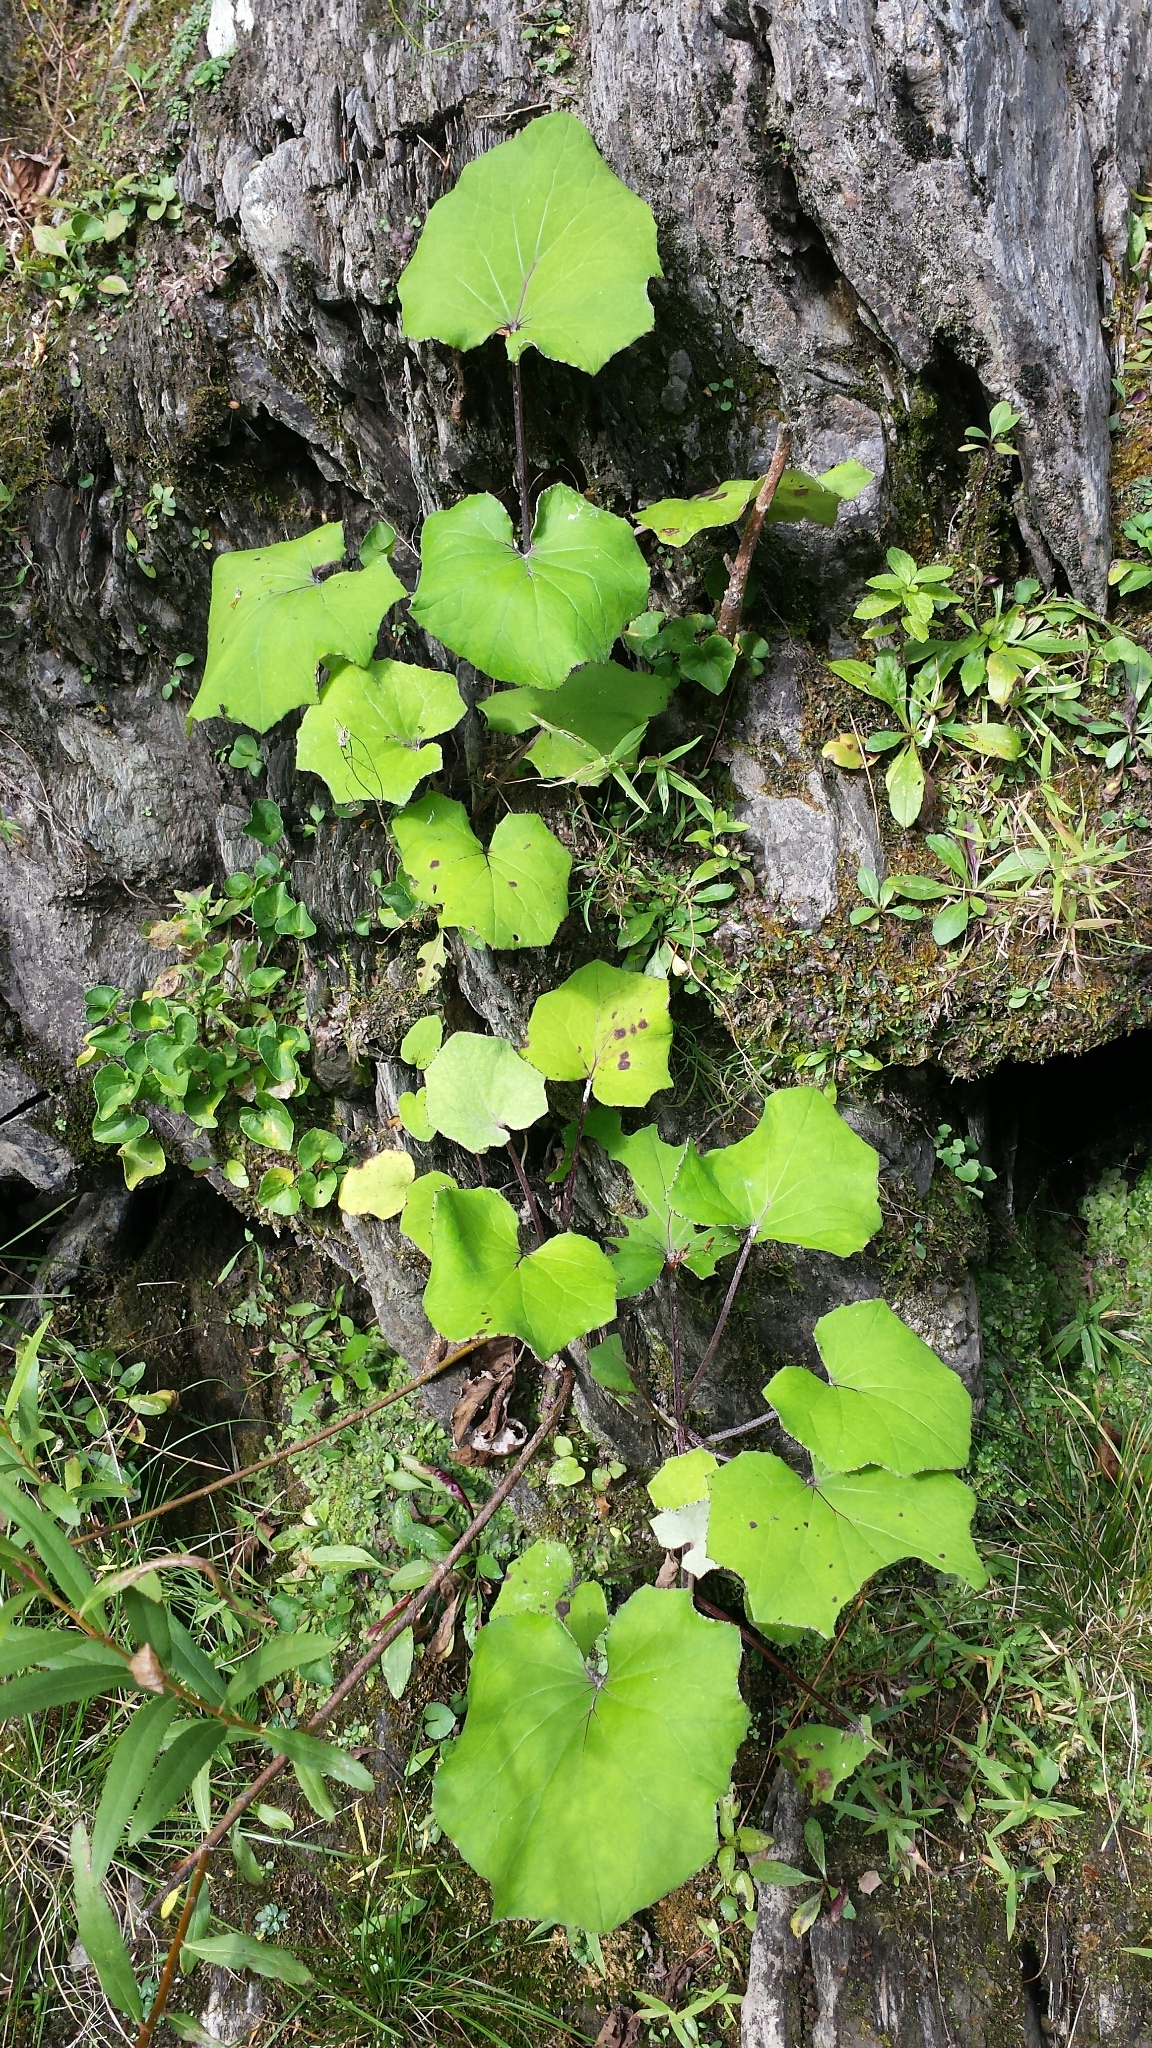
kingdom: Plantae
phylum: Tracheophyta
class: Magnoliopsida
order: Asterales
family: Asteraceae
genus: Tussilago
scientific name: Tussilago farfara
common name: Coltsfoot
